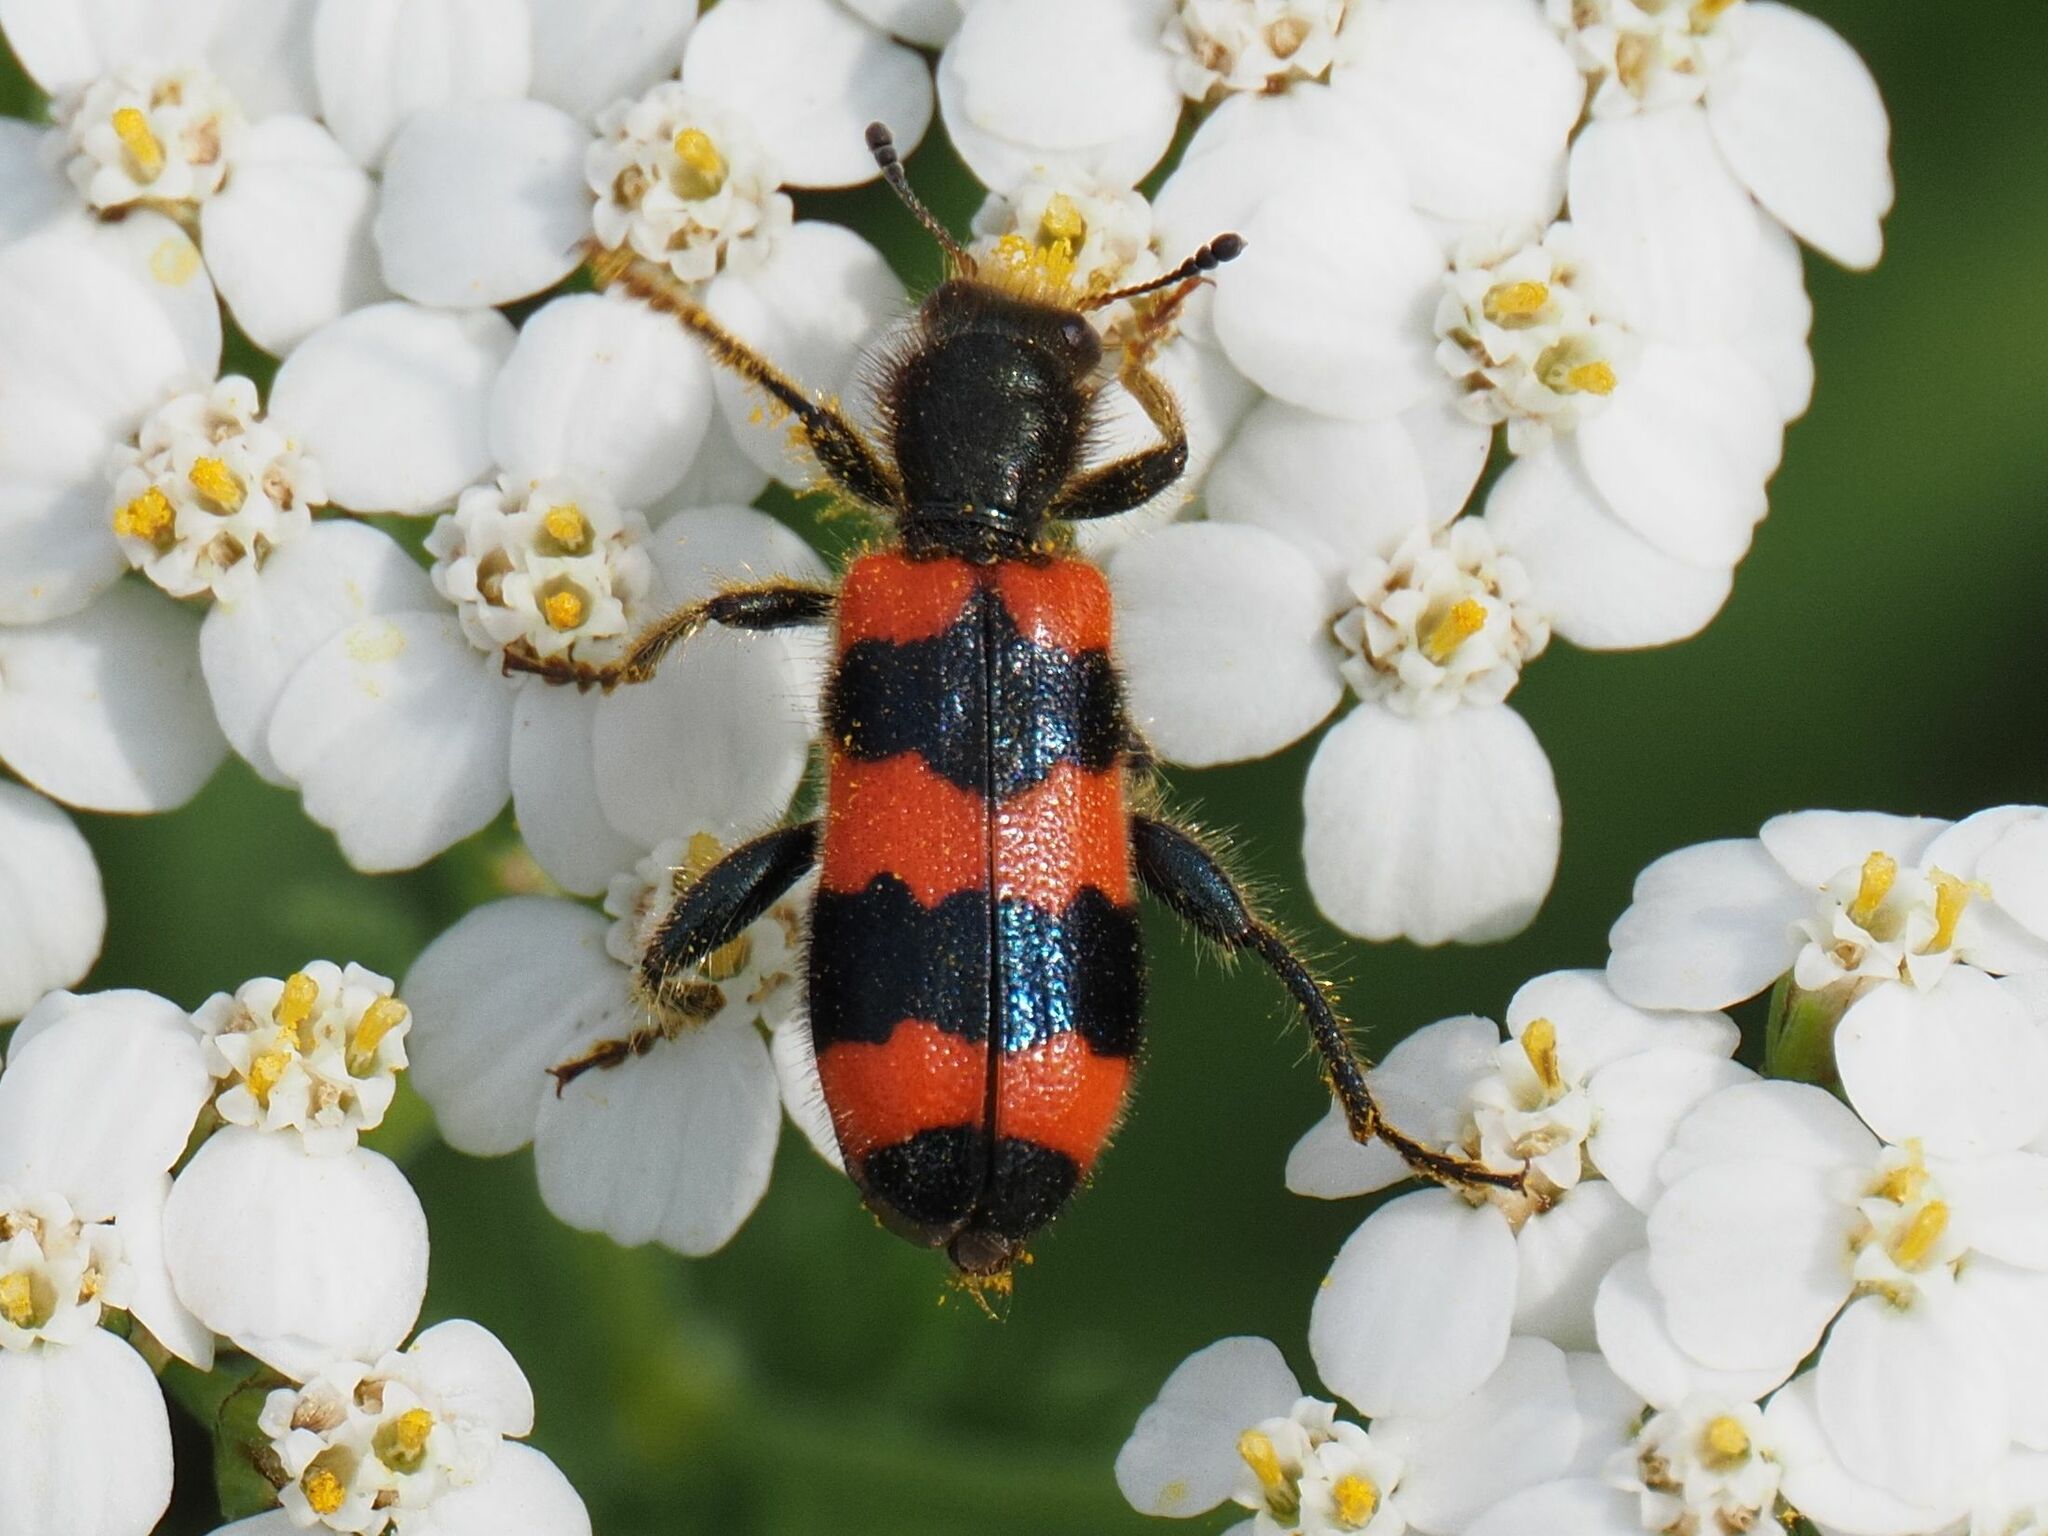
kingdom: Animalia
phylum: Arthropoda
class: Insecta
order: Coleoptera
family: Cleridae
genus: Trichodes
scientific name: Trichodes apiarius
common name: Bee-eating beetle
